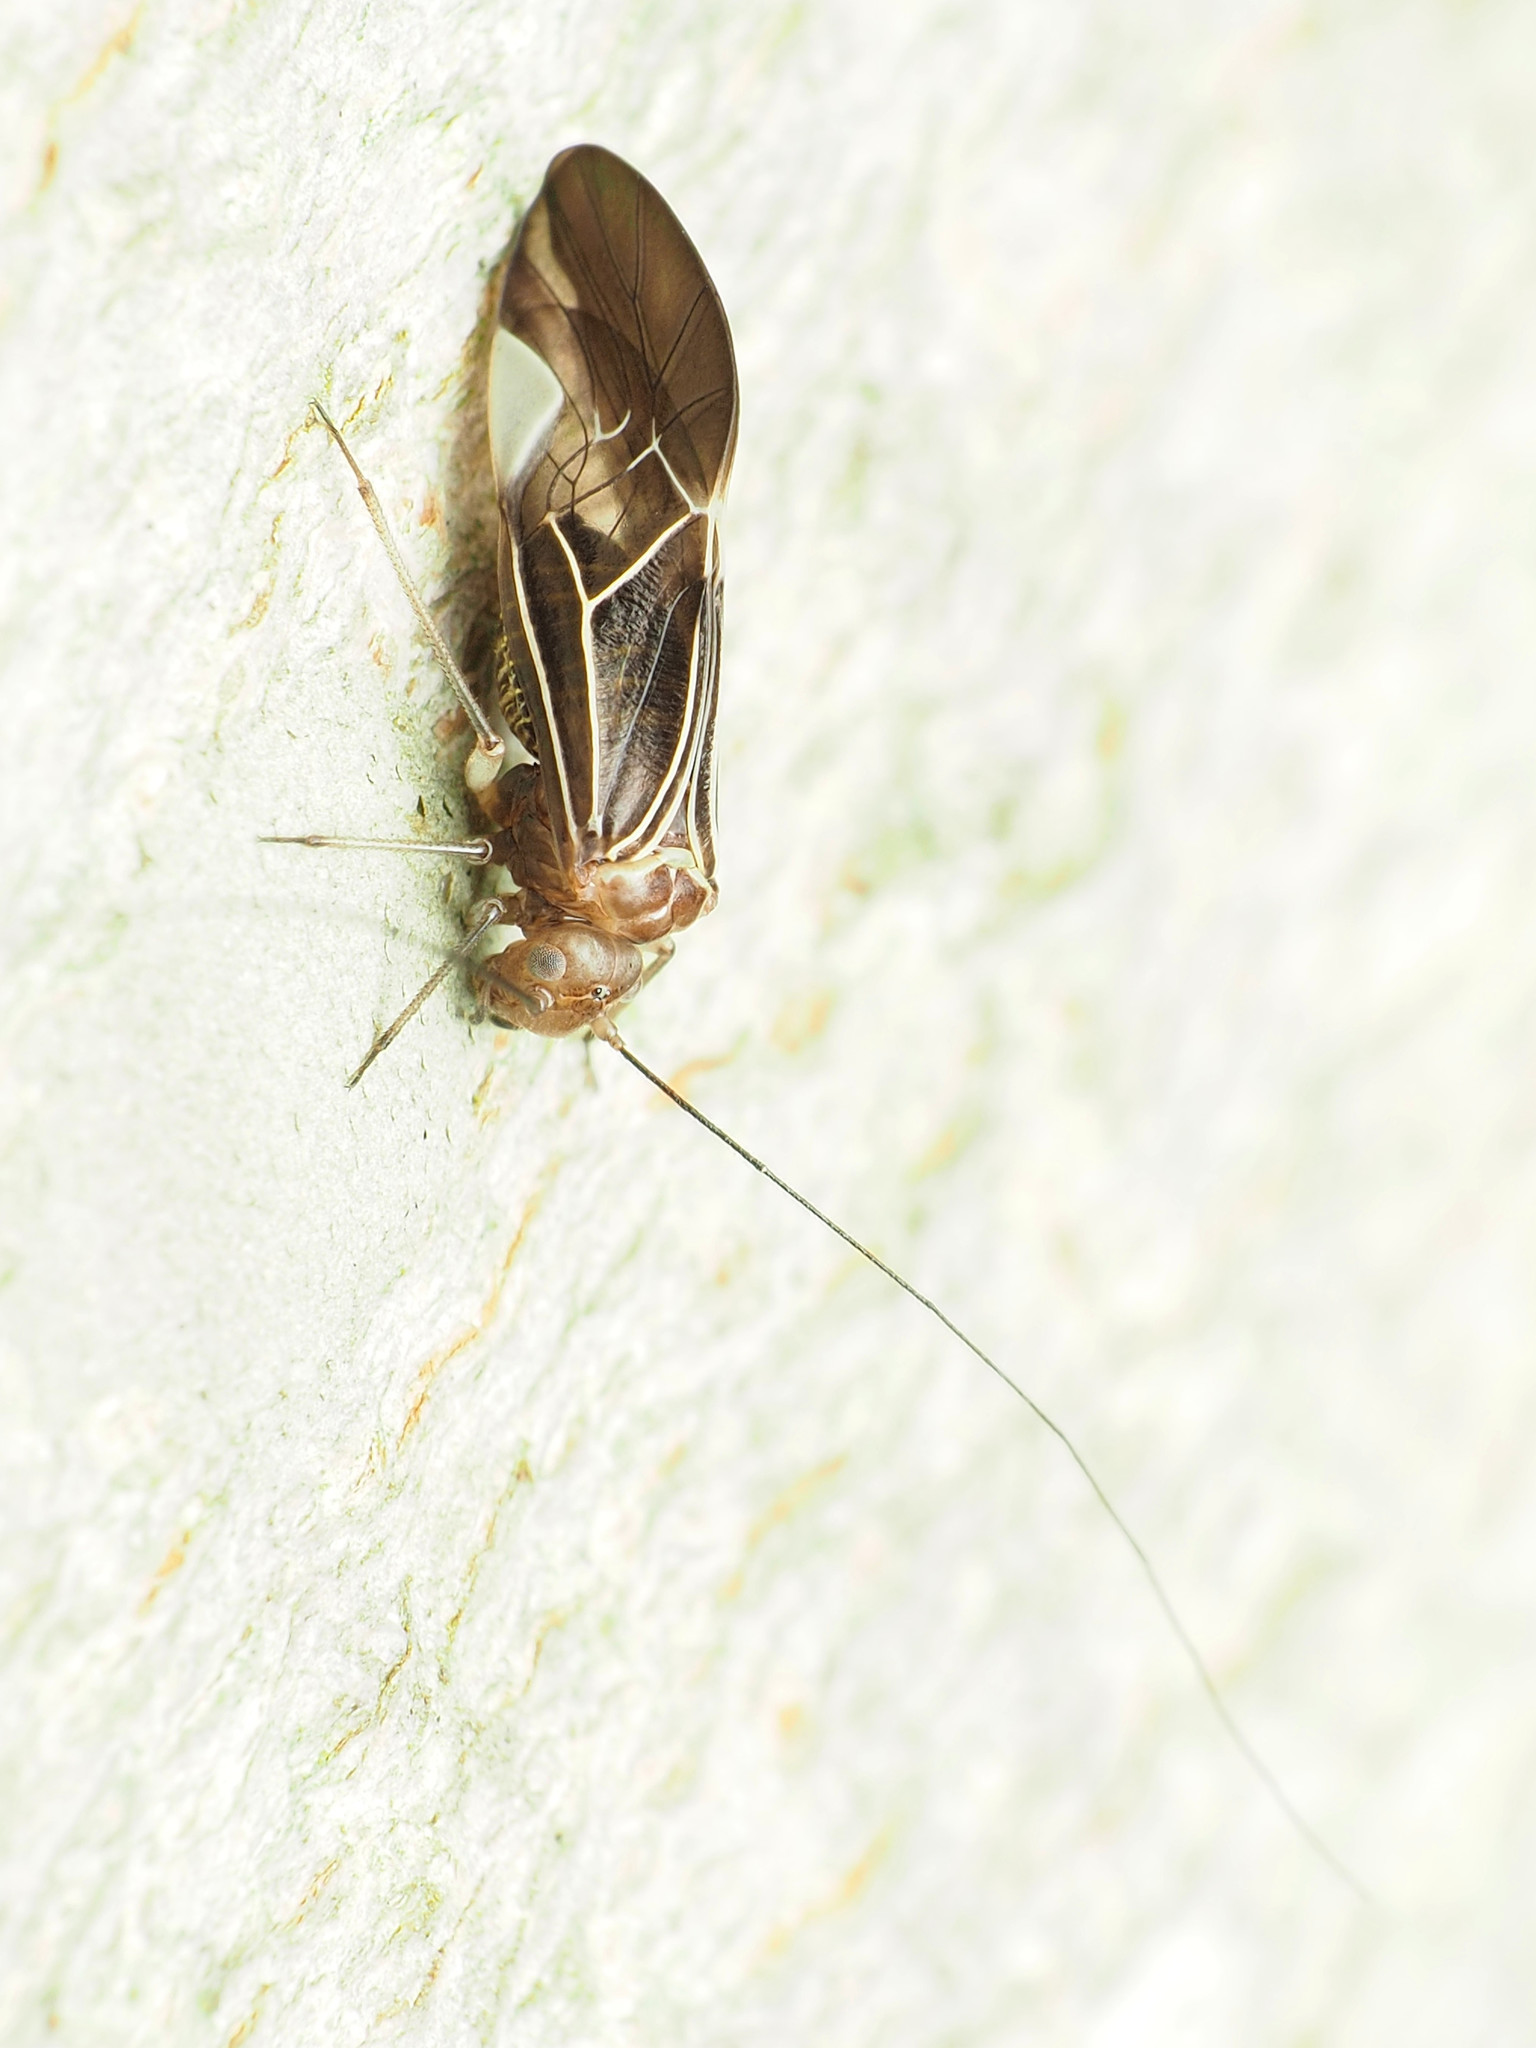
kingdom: Animalia
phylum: Arthropoda
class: Insecta
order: Psocodea
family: Psocidae
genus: Cerastipsocus
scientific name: Cerastipsocus venosus
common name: Tree cattle
